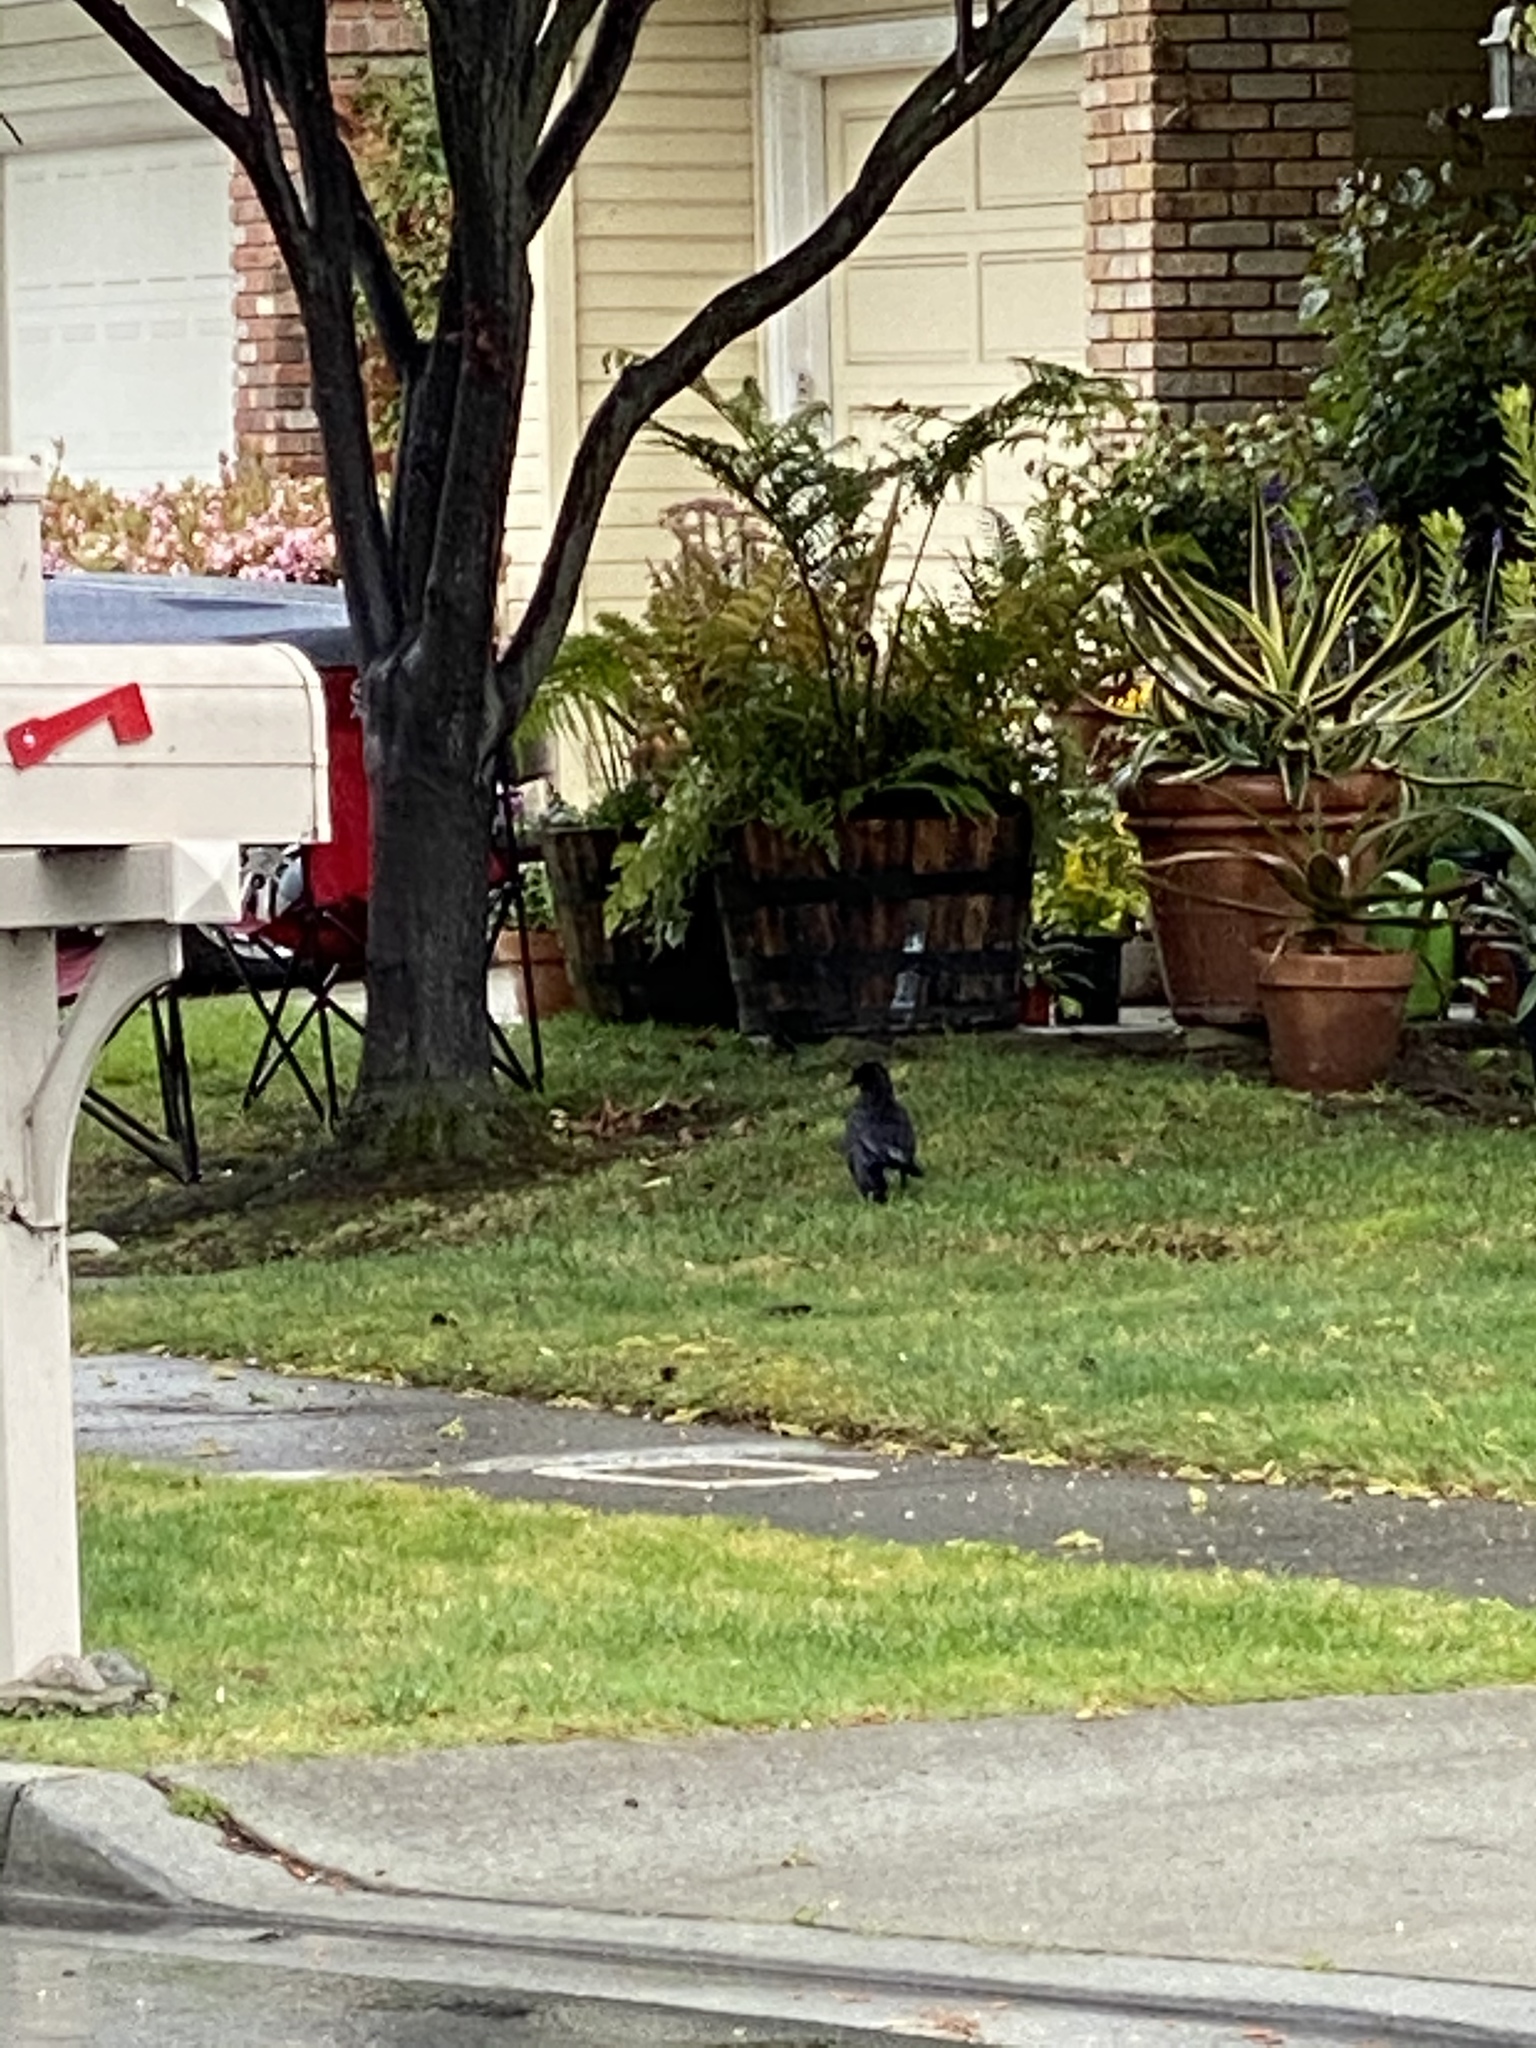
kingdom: Animalia
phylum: Chordata
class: Aves
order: Passeriformes
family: Corvidae
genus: Corvus
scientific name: Corvus brachyrhynchos
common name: American crow
